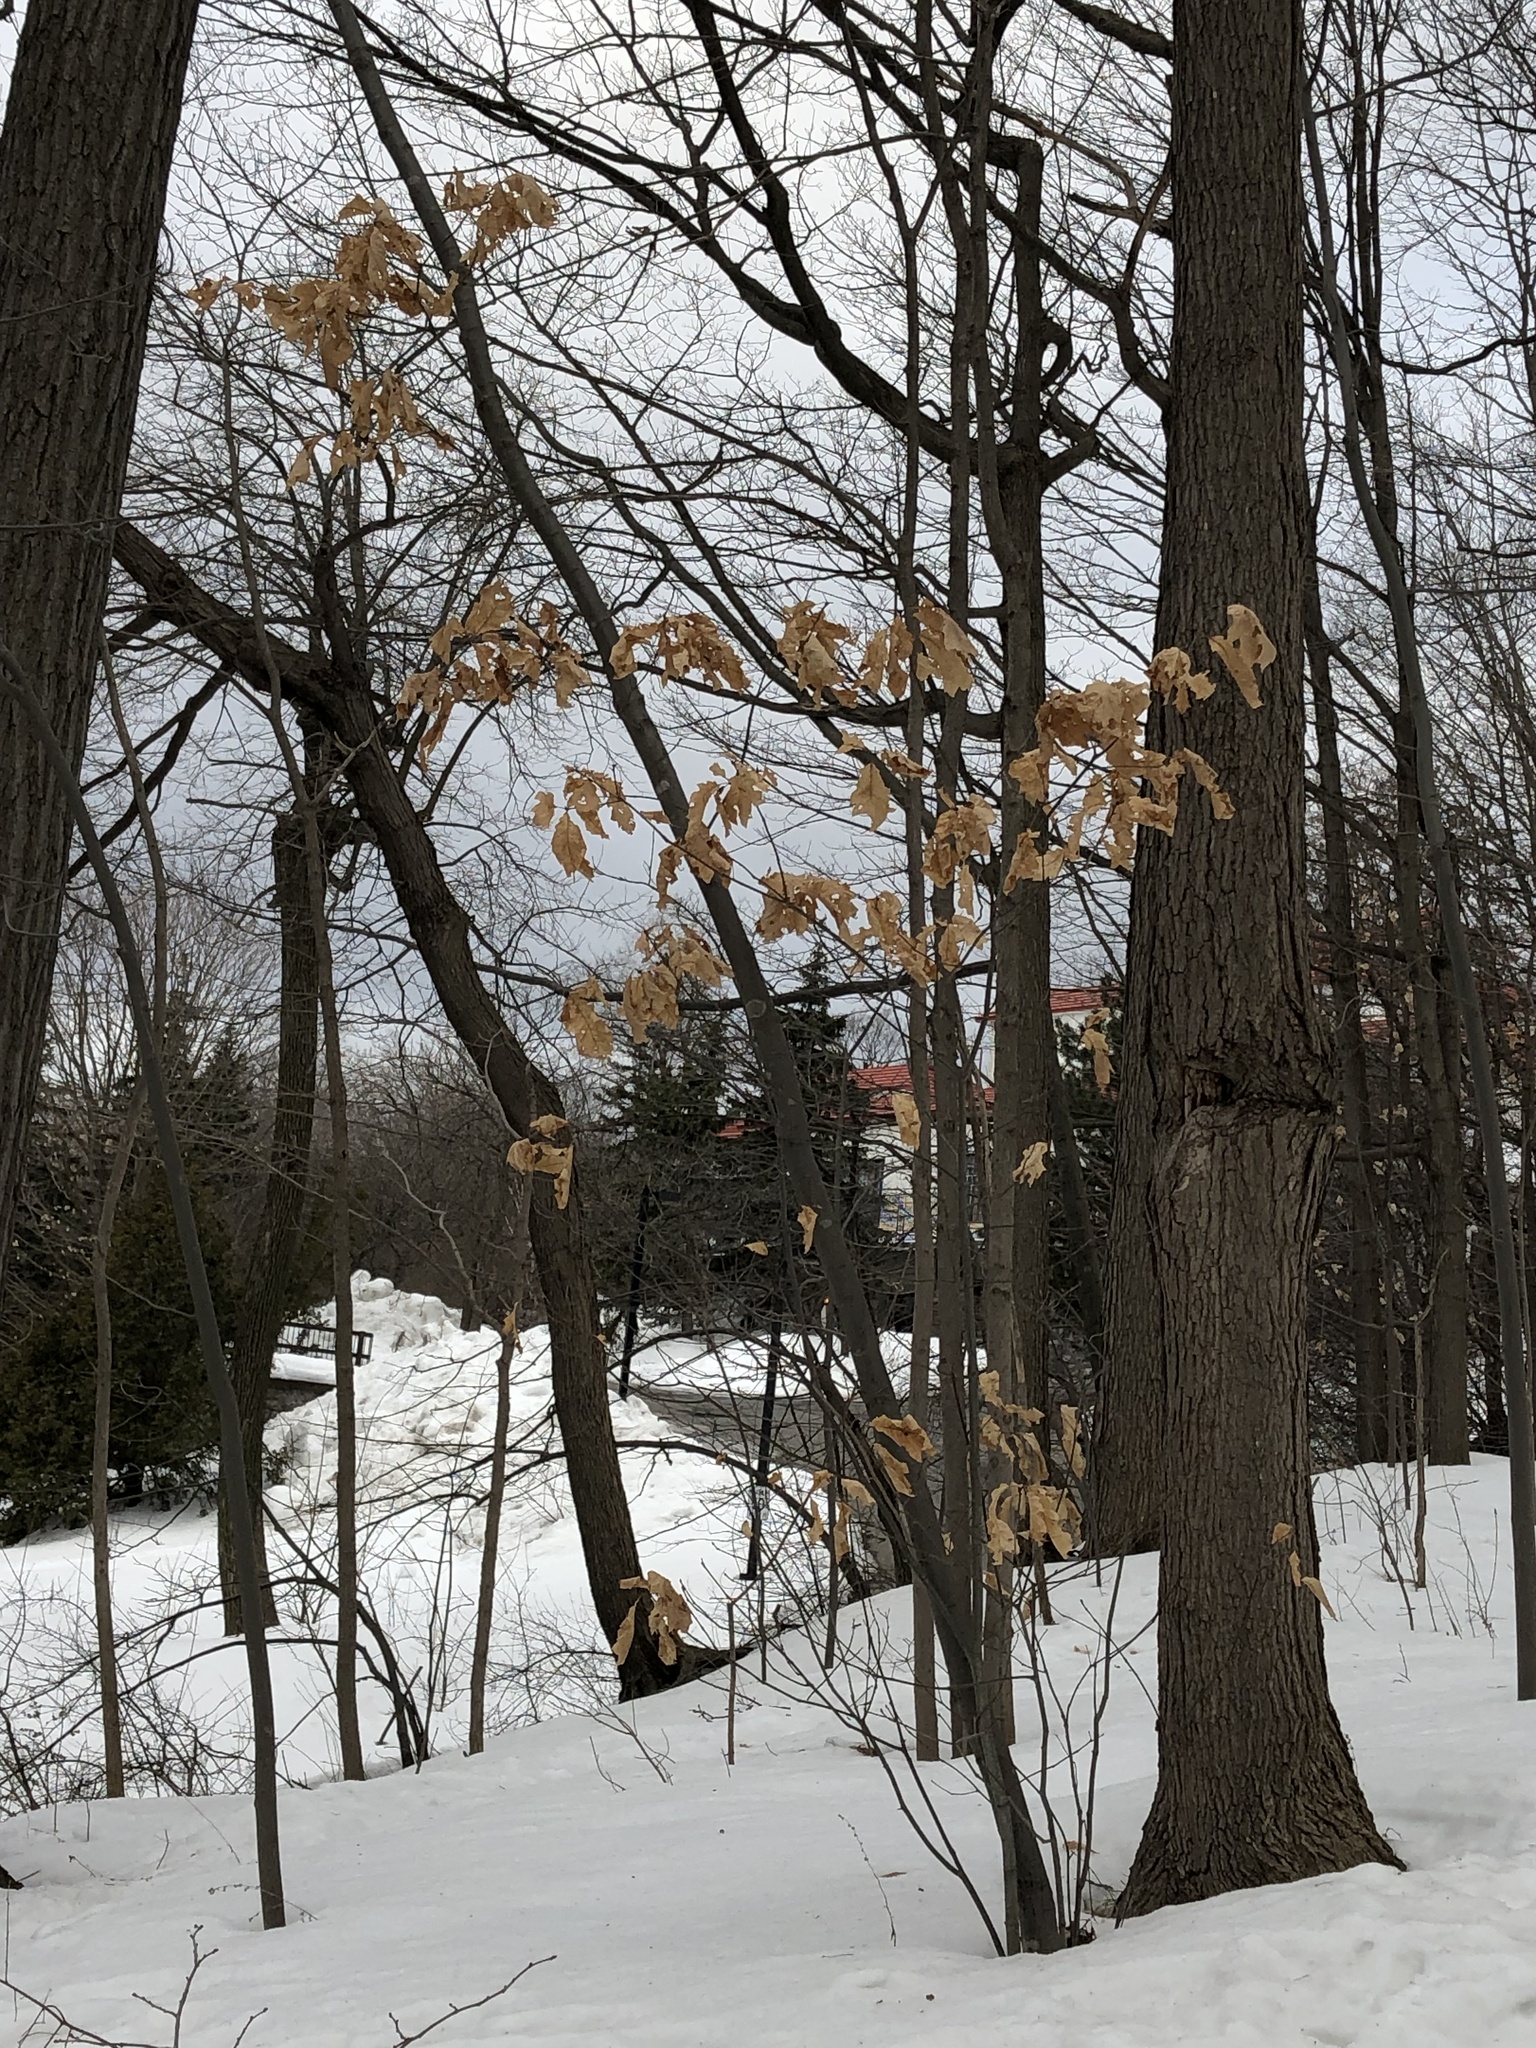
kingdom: Plantae
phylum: Tracheophyta
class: Magnoliopsida
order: Fagales
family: Fagaceae
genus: Quercus
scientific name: Quercus rubra
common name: Red oak
